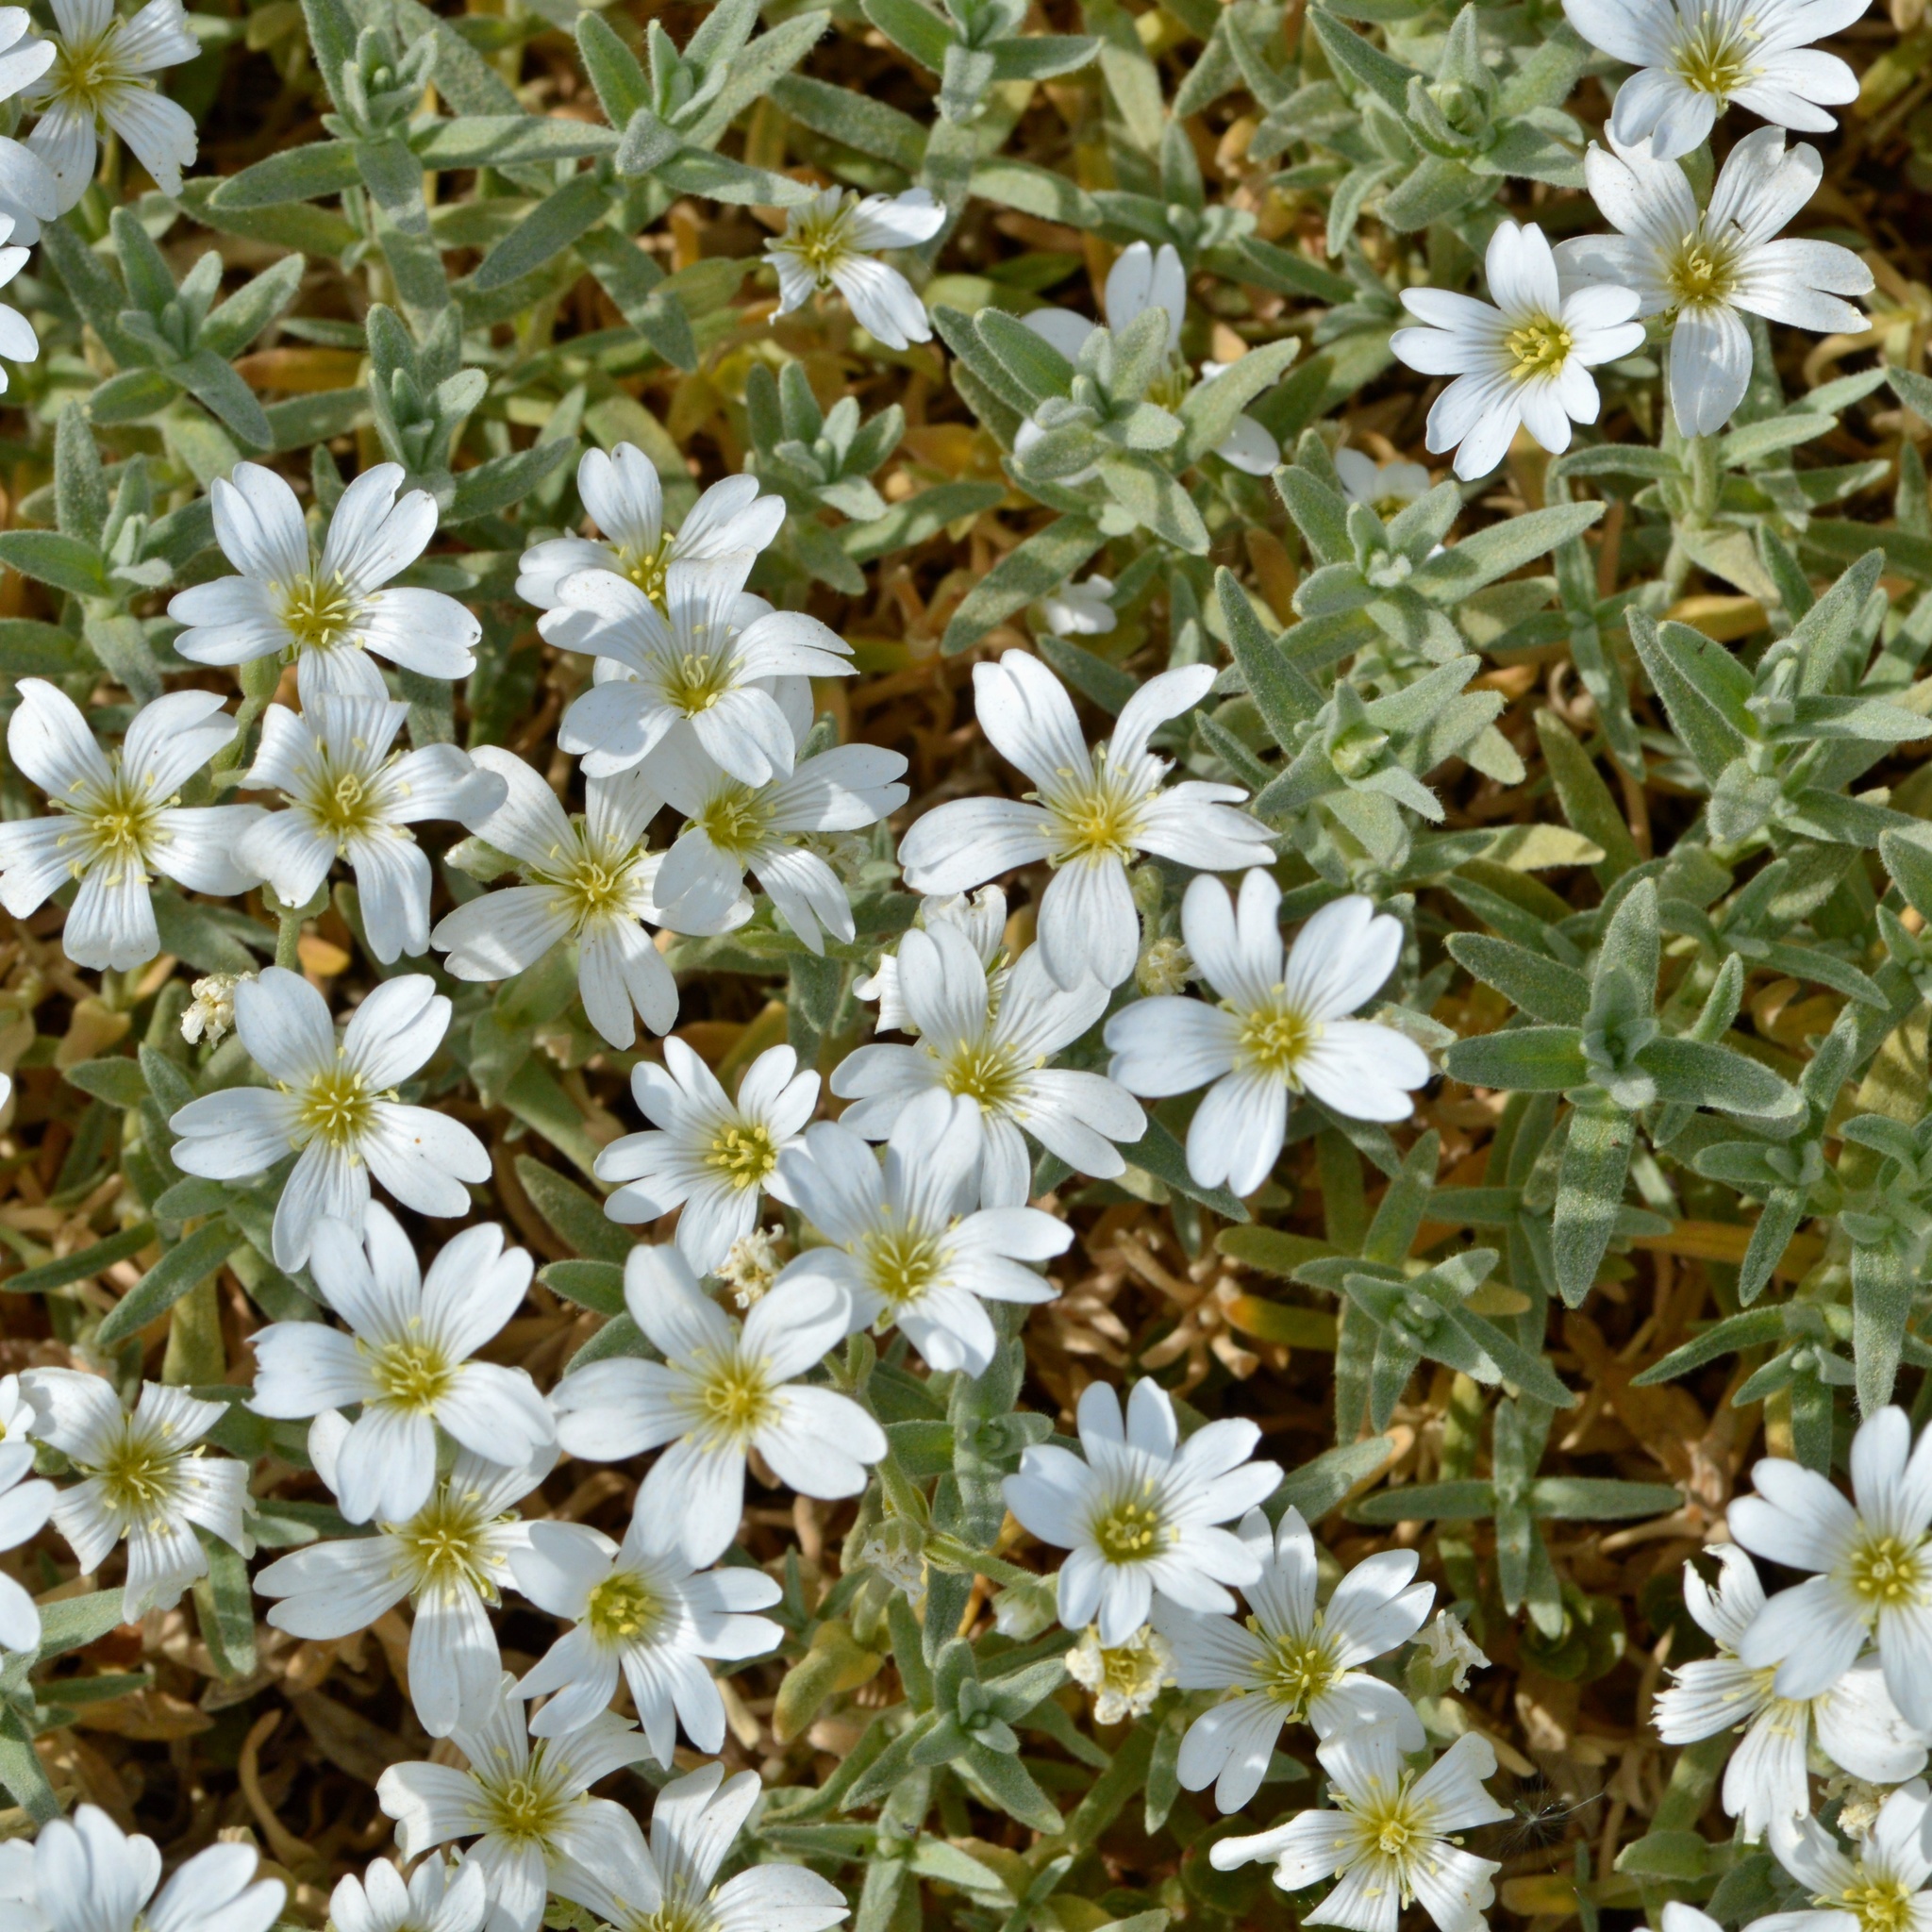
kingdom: Plantae
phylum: Tracheophyta
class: Magnoliopsida
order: Caryophyllales
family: Caryophyllaceae
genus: Cerastium
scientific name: Cerastium tomentosum
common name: Snow-in-summer
